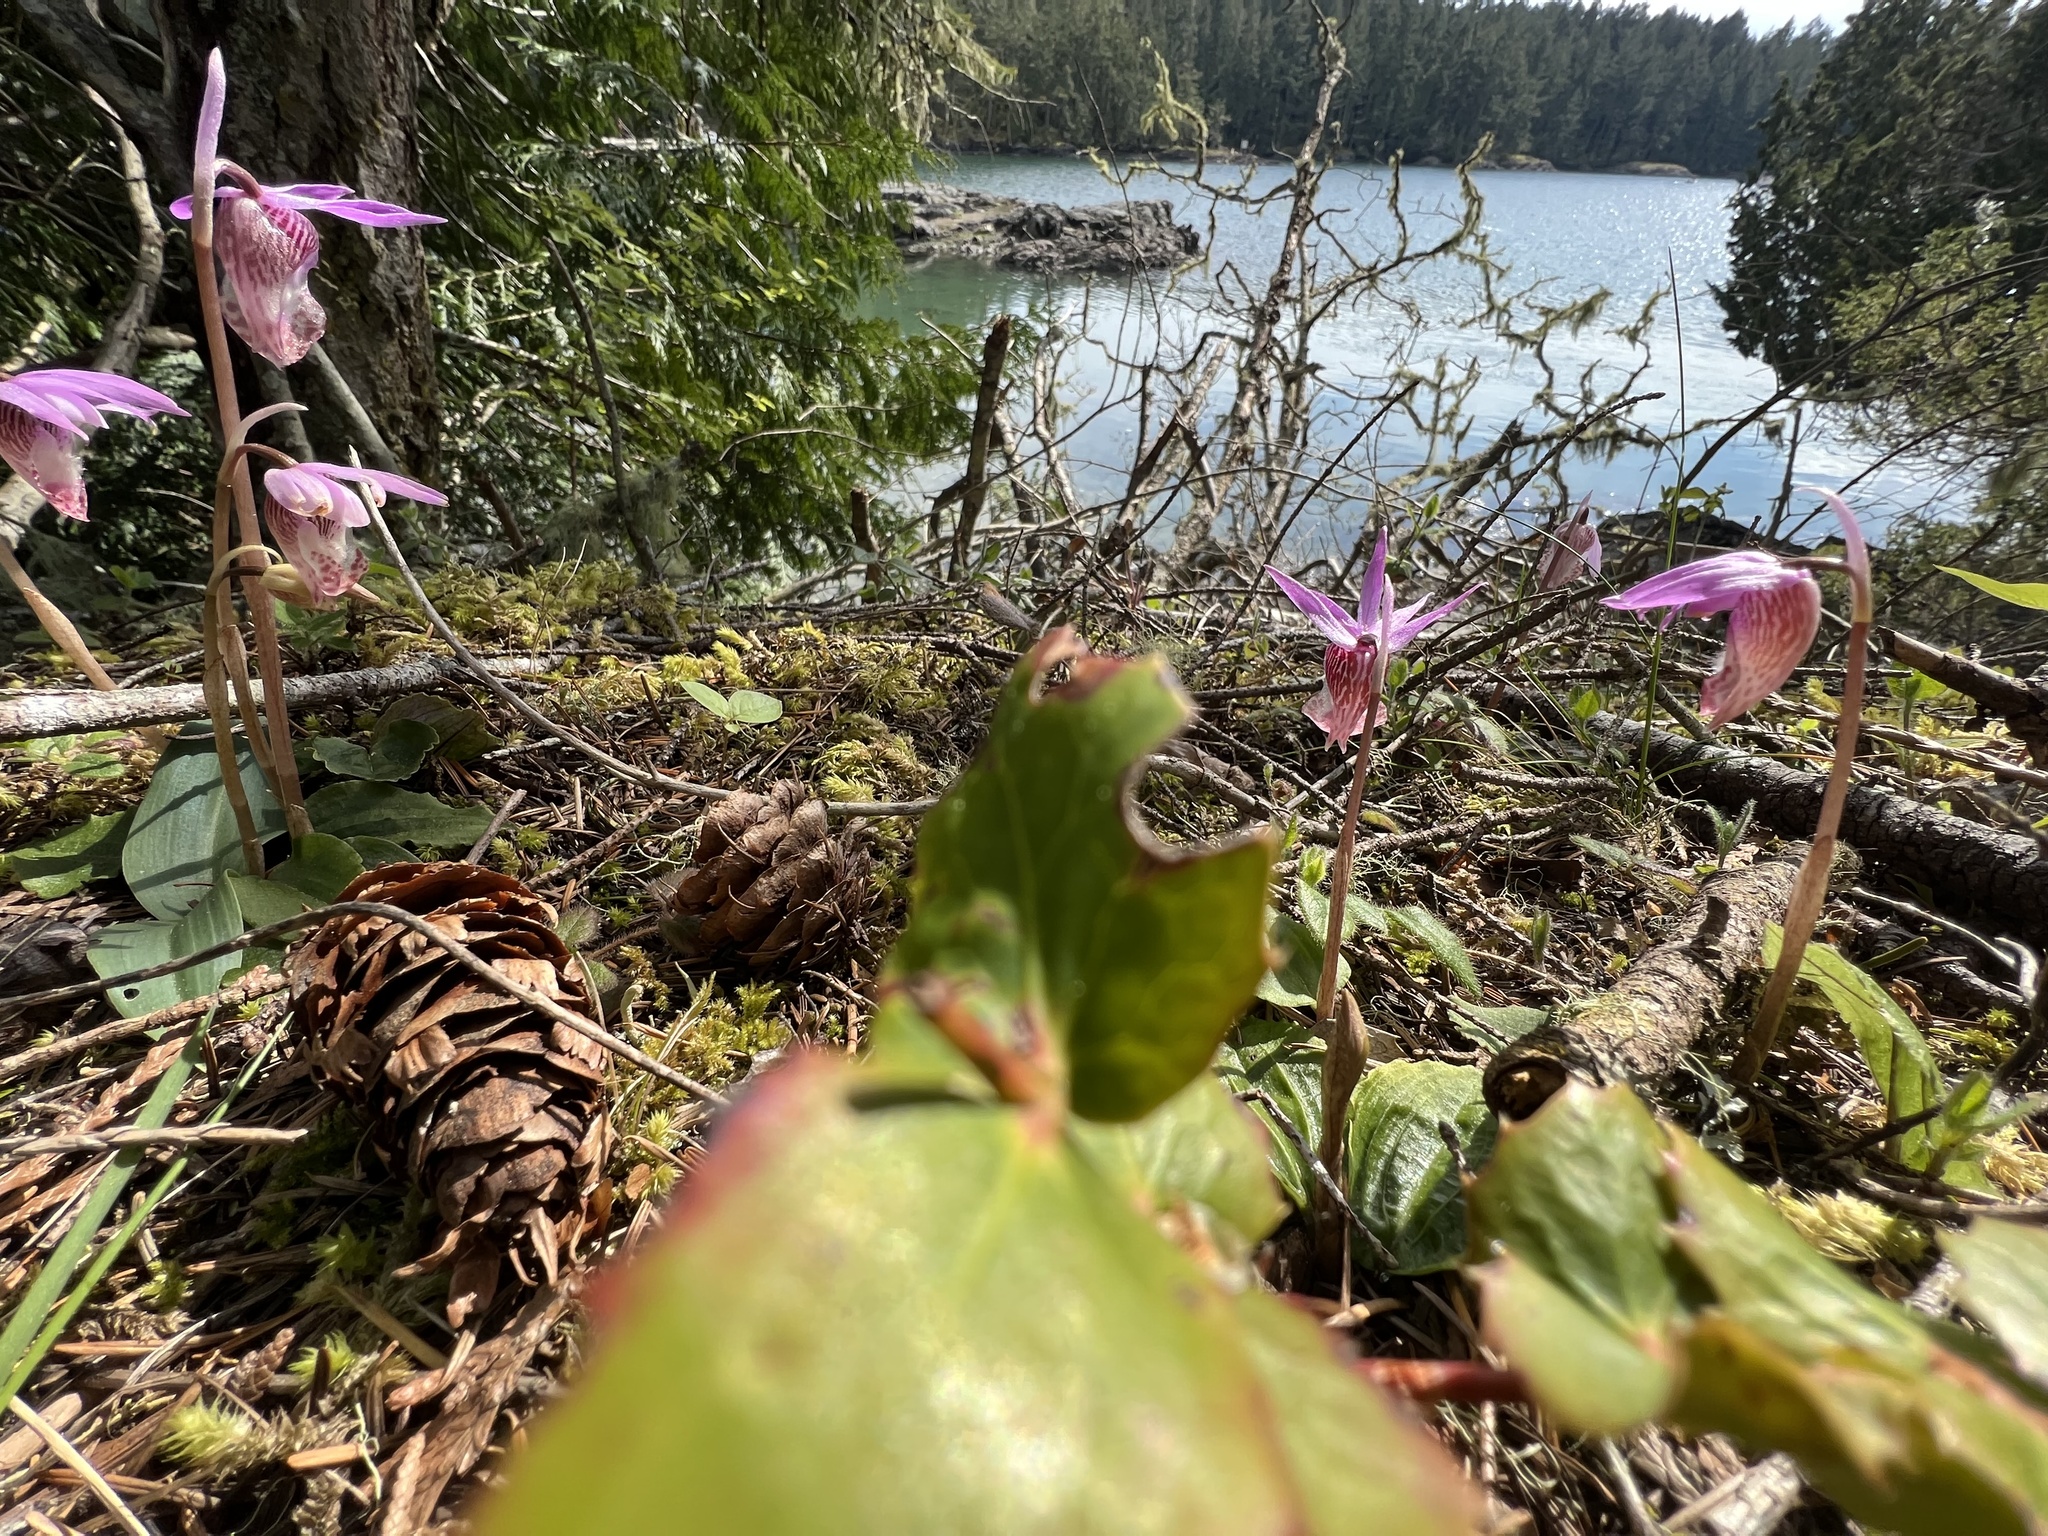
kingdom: Plantae
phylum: Tracheophyta
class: Liliopsida
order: Asparagales
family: Orchidaceae
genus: Calypso
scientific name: Calypso bulbosa
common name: Calypso
